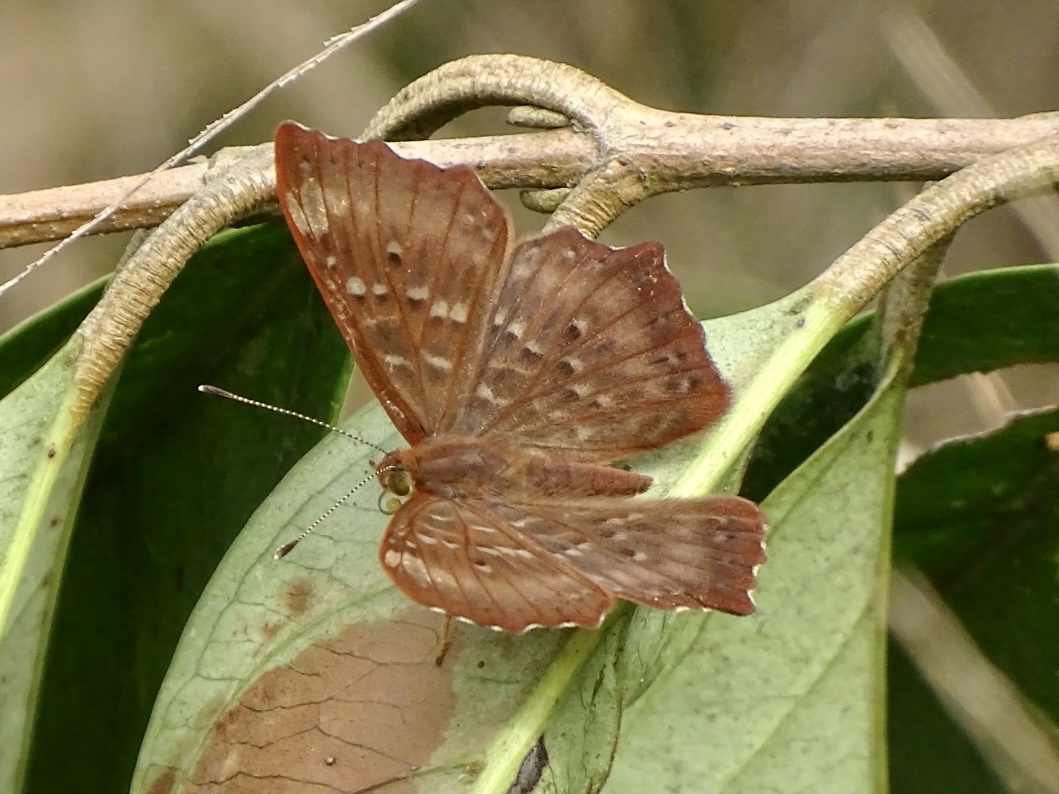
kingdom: Animalia
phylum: Arthropoda
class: Insecta
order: Lepidoptera
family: Riodinidae
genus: Zemeros
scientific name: Zemeros flegyas
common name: Punchinello
